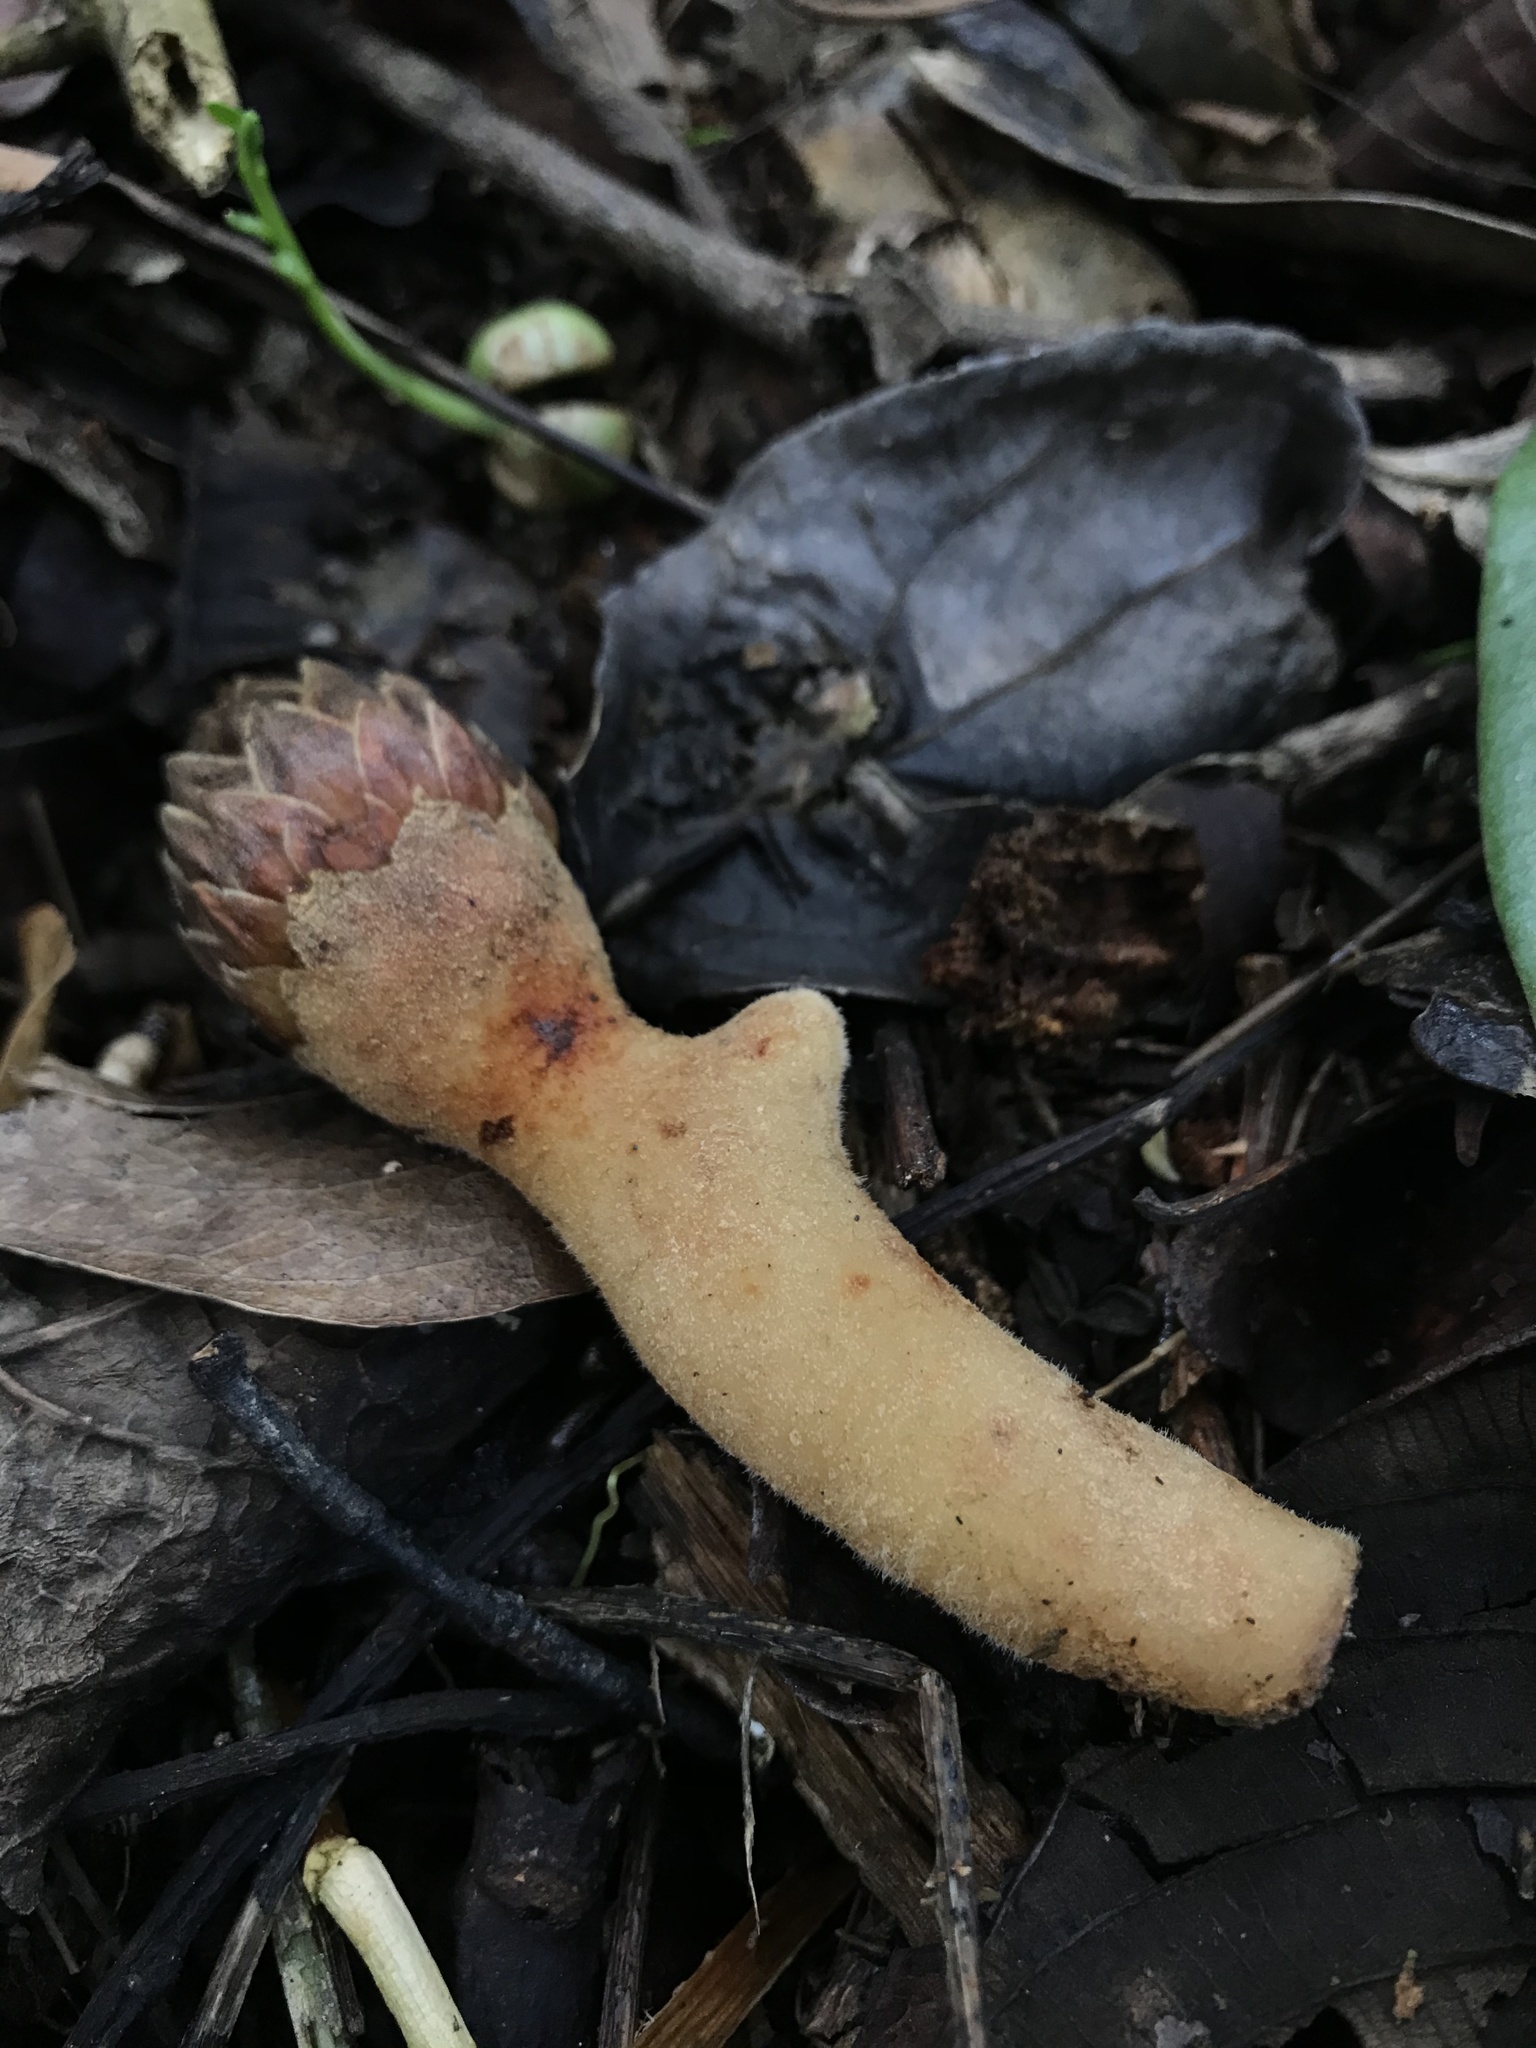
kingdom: Plantae
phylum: Tracheophyta
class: Magnoliopsida
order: Santalales
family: Balanophoraceae
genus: Langsdorffia
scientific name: Langsdorffia hypogaea
